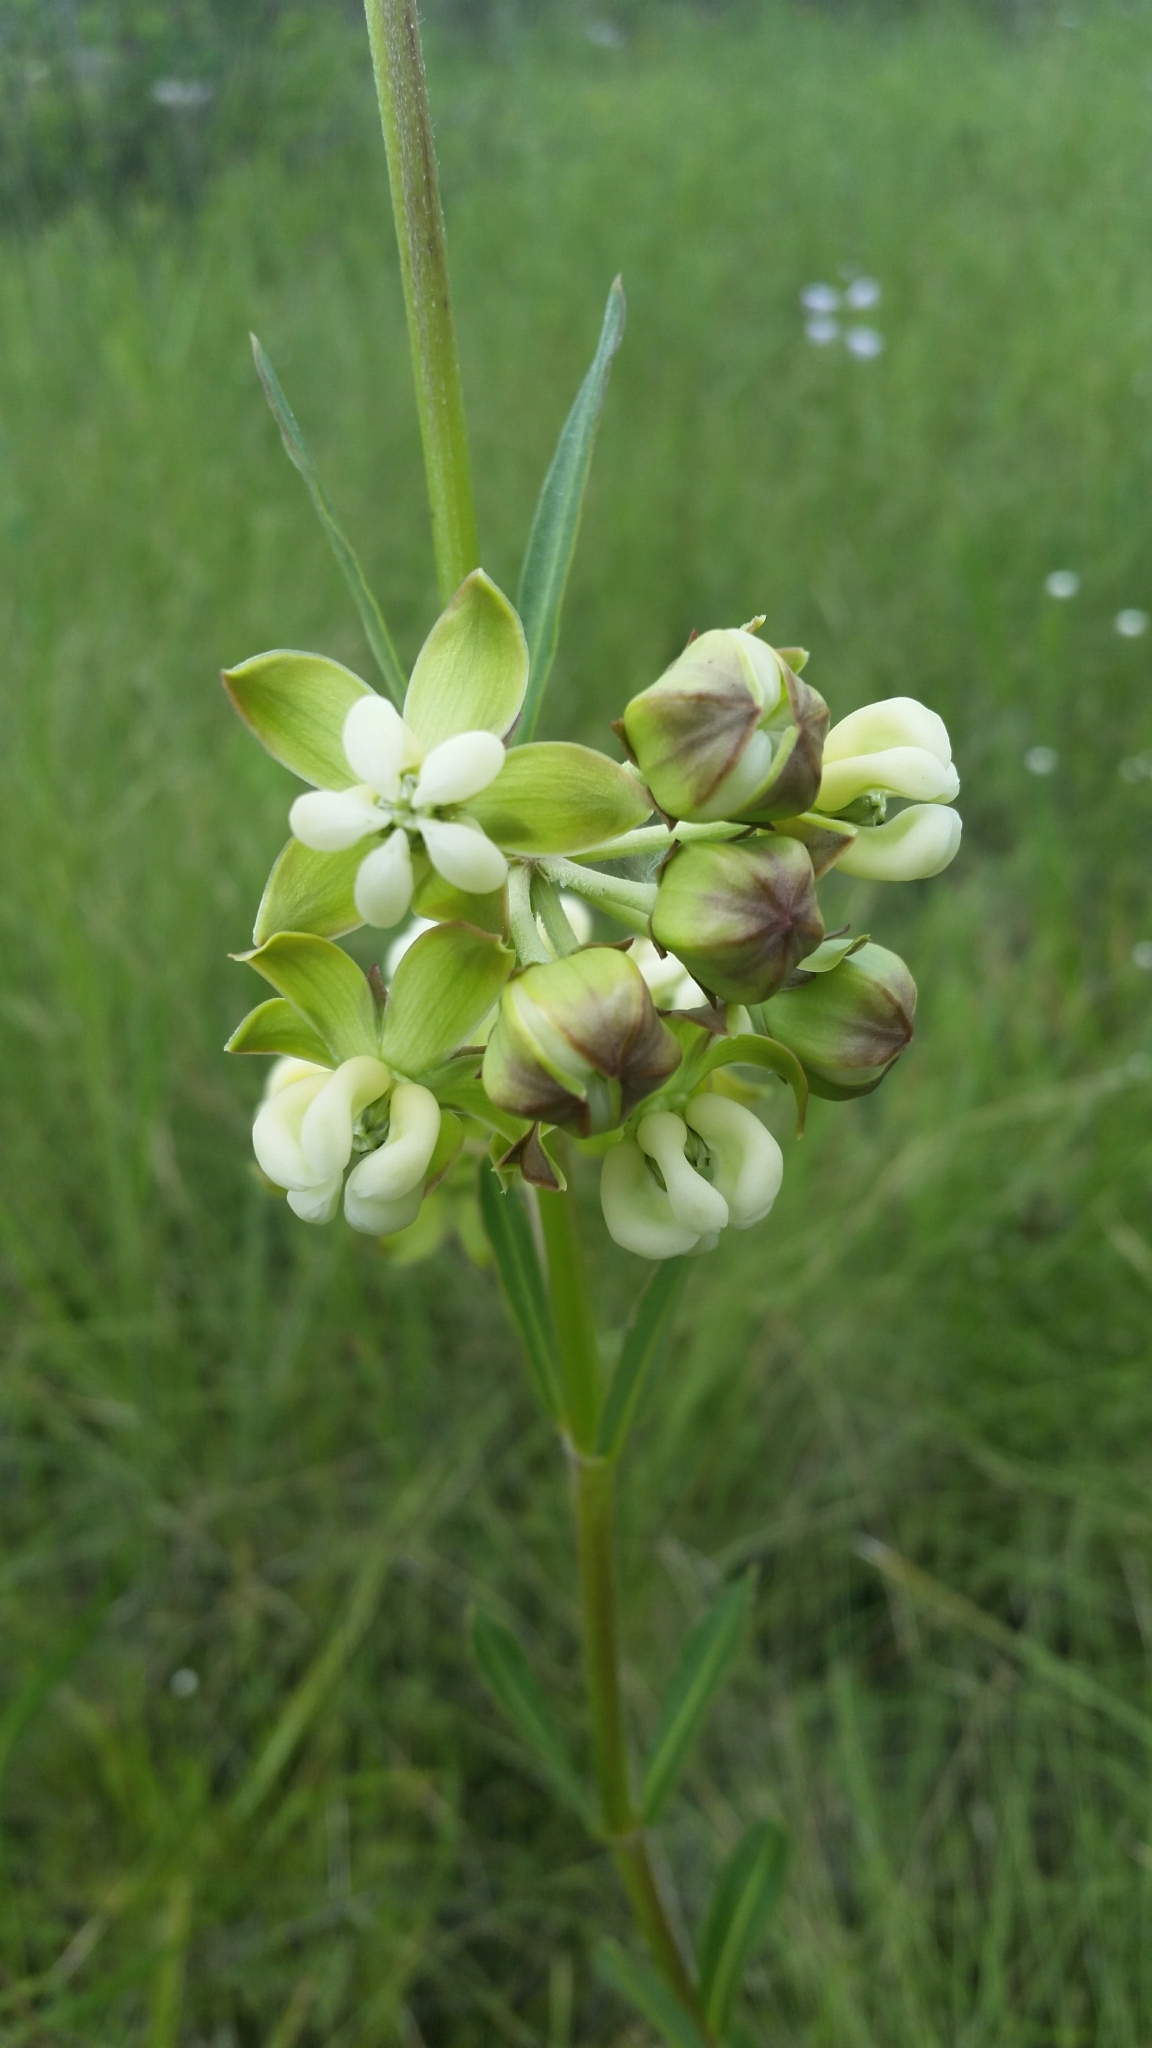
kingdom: Plantae
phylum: Tracheophyta
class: Magnoliopsida
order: Gentianales
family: Apocynaceae
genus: Asclepias
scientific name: Asclepias connivens
